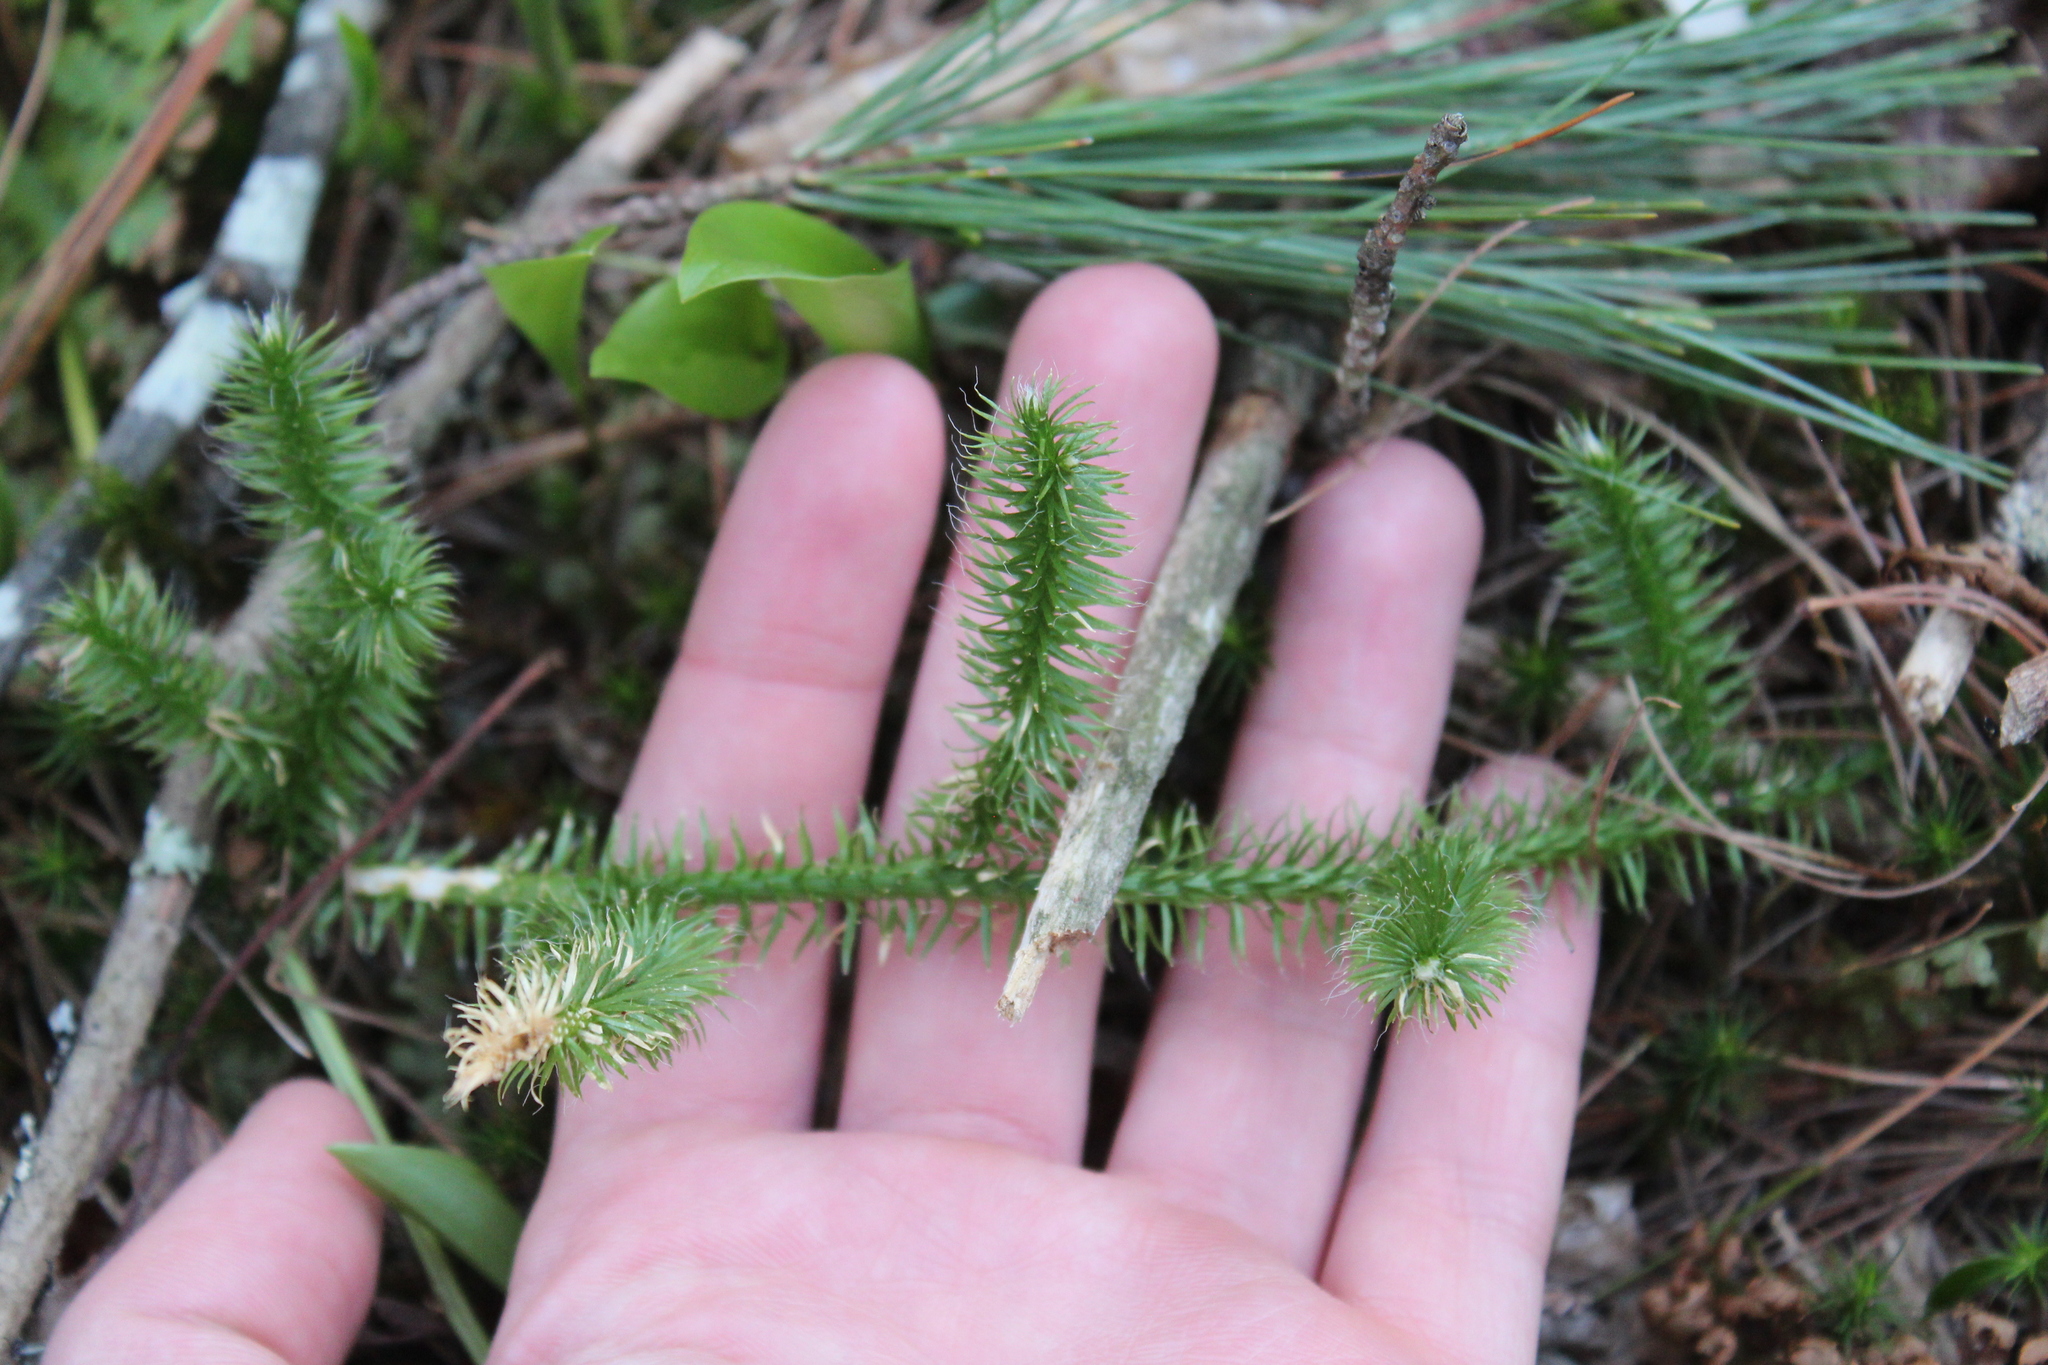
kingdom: Plantae
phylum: Tracheophyta
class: Lycopodiopsida
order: Lycopodiales
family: Lycopodiaceae
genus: Lycopodium
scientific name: Lycopodium clavatum
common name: Stag's-horn clubmoss
